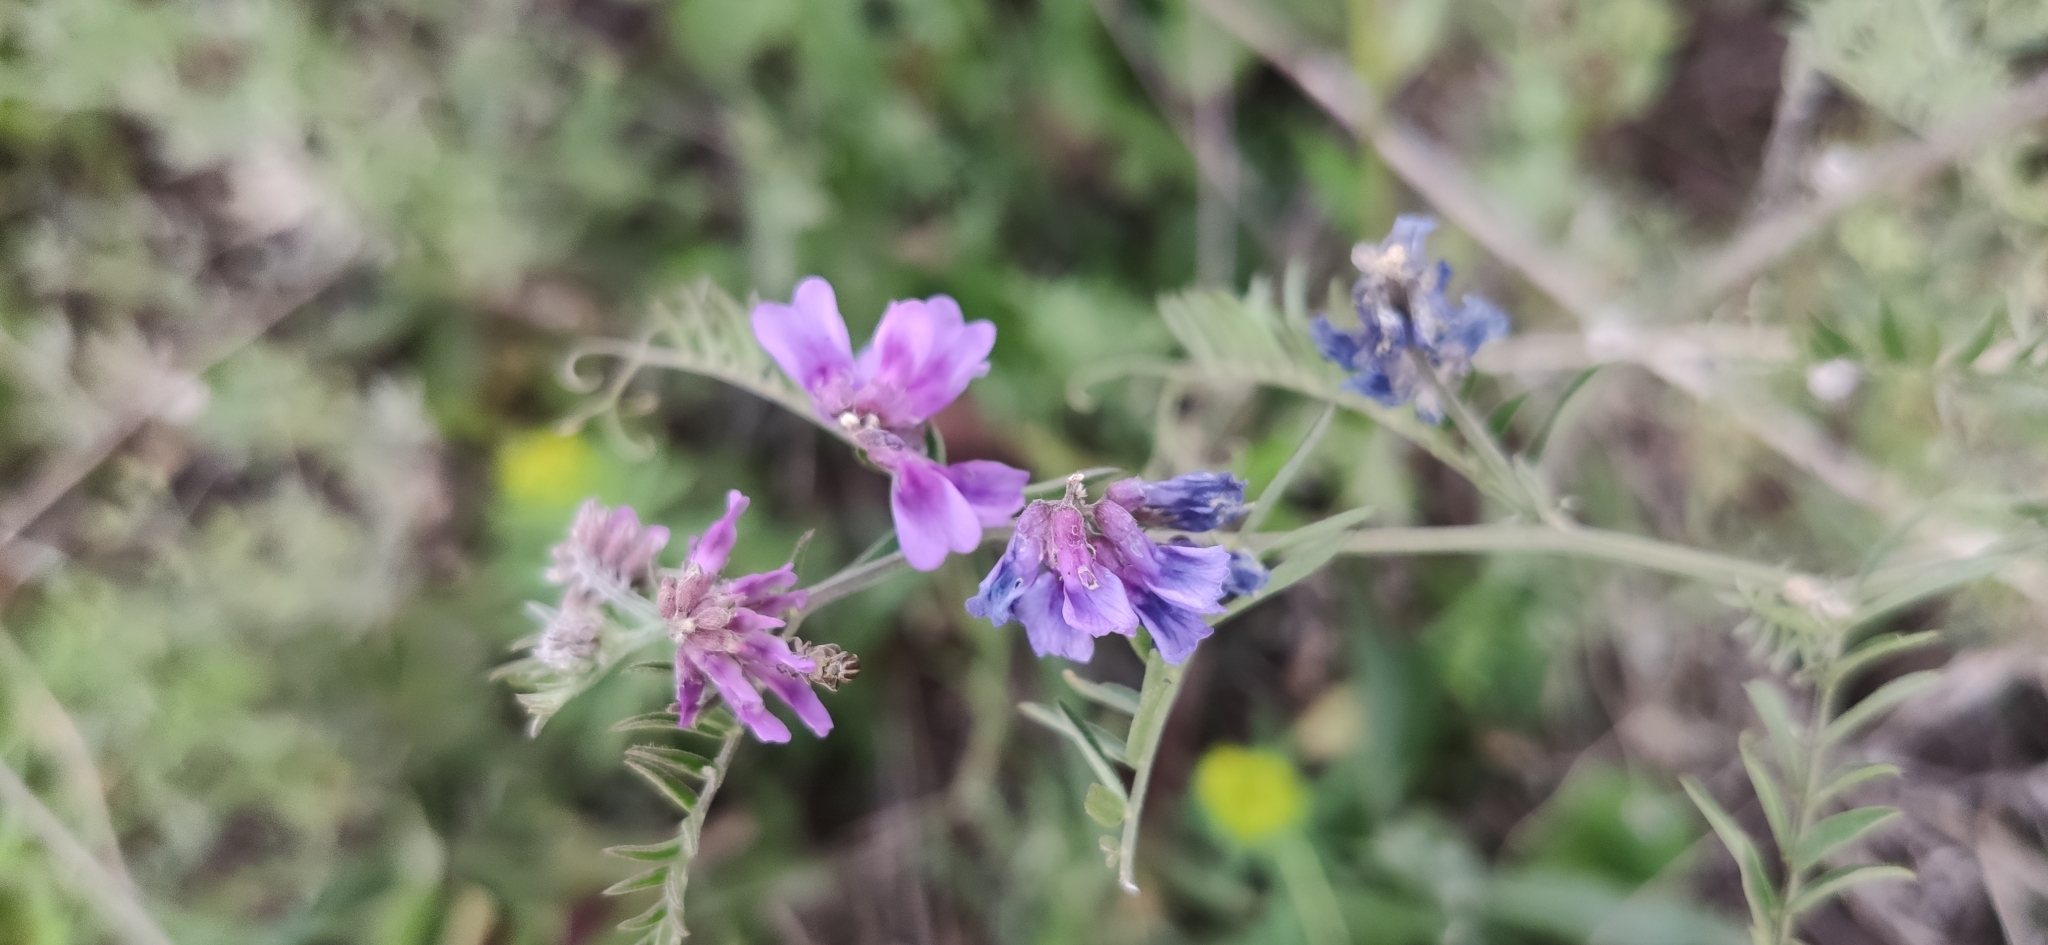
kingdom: Plantae
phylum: Tracheophyta
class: Magnoliopsida
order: Fabales
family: Fabaceae
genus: Vicia
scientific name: Vicia cracca
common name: Bird vetch
